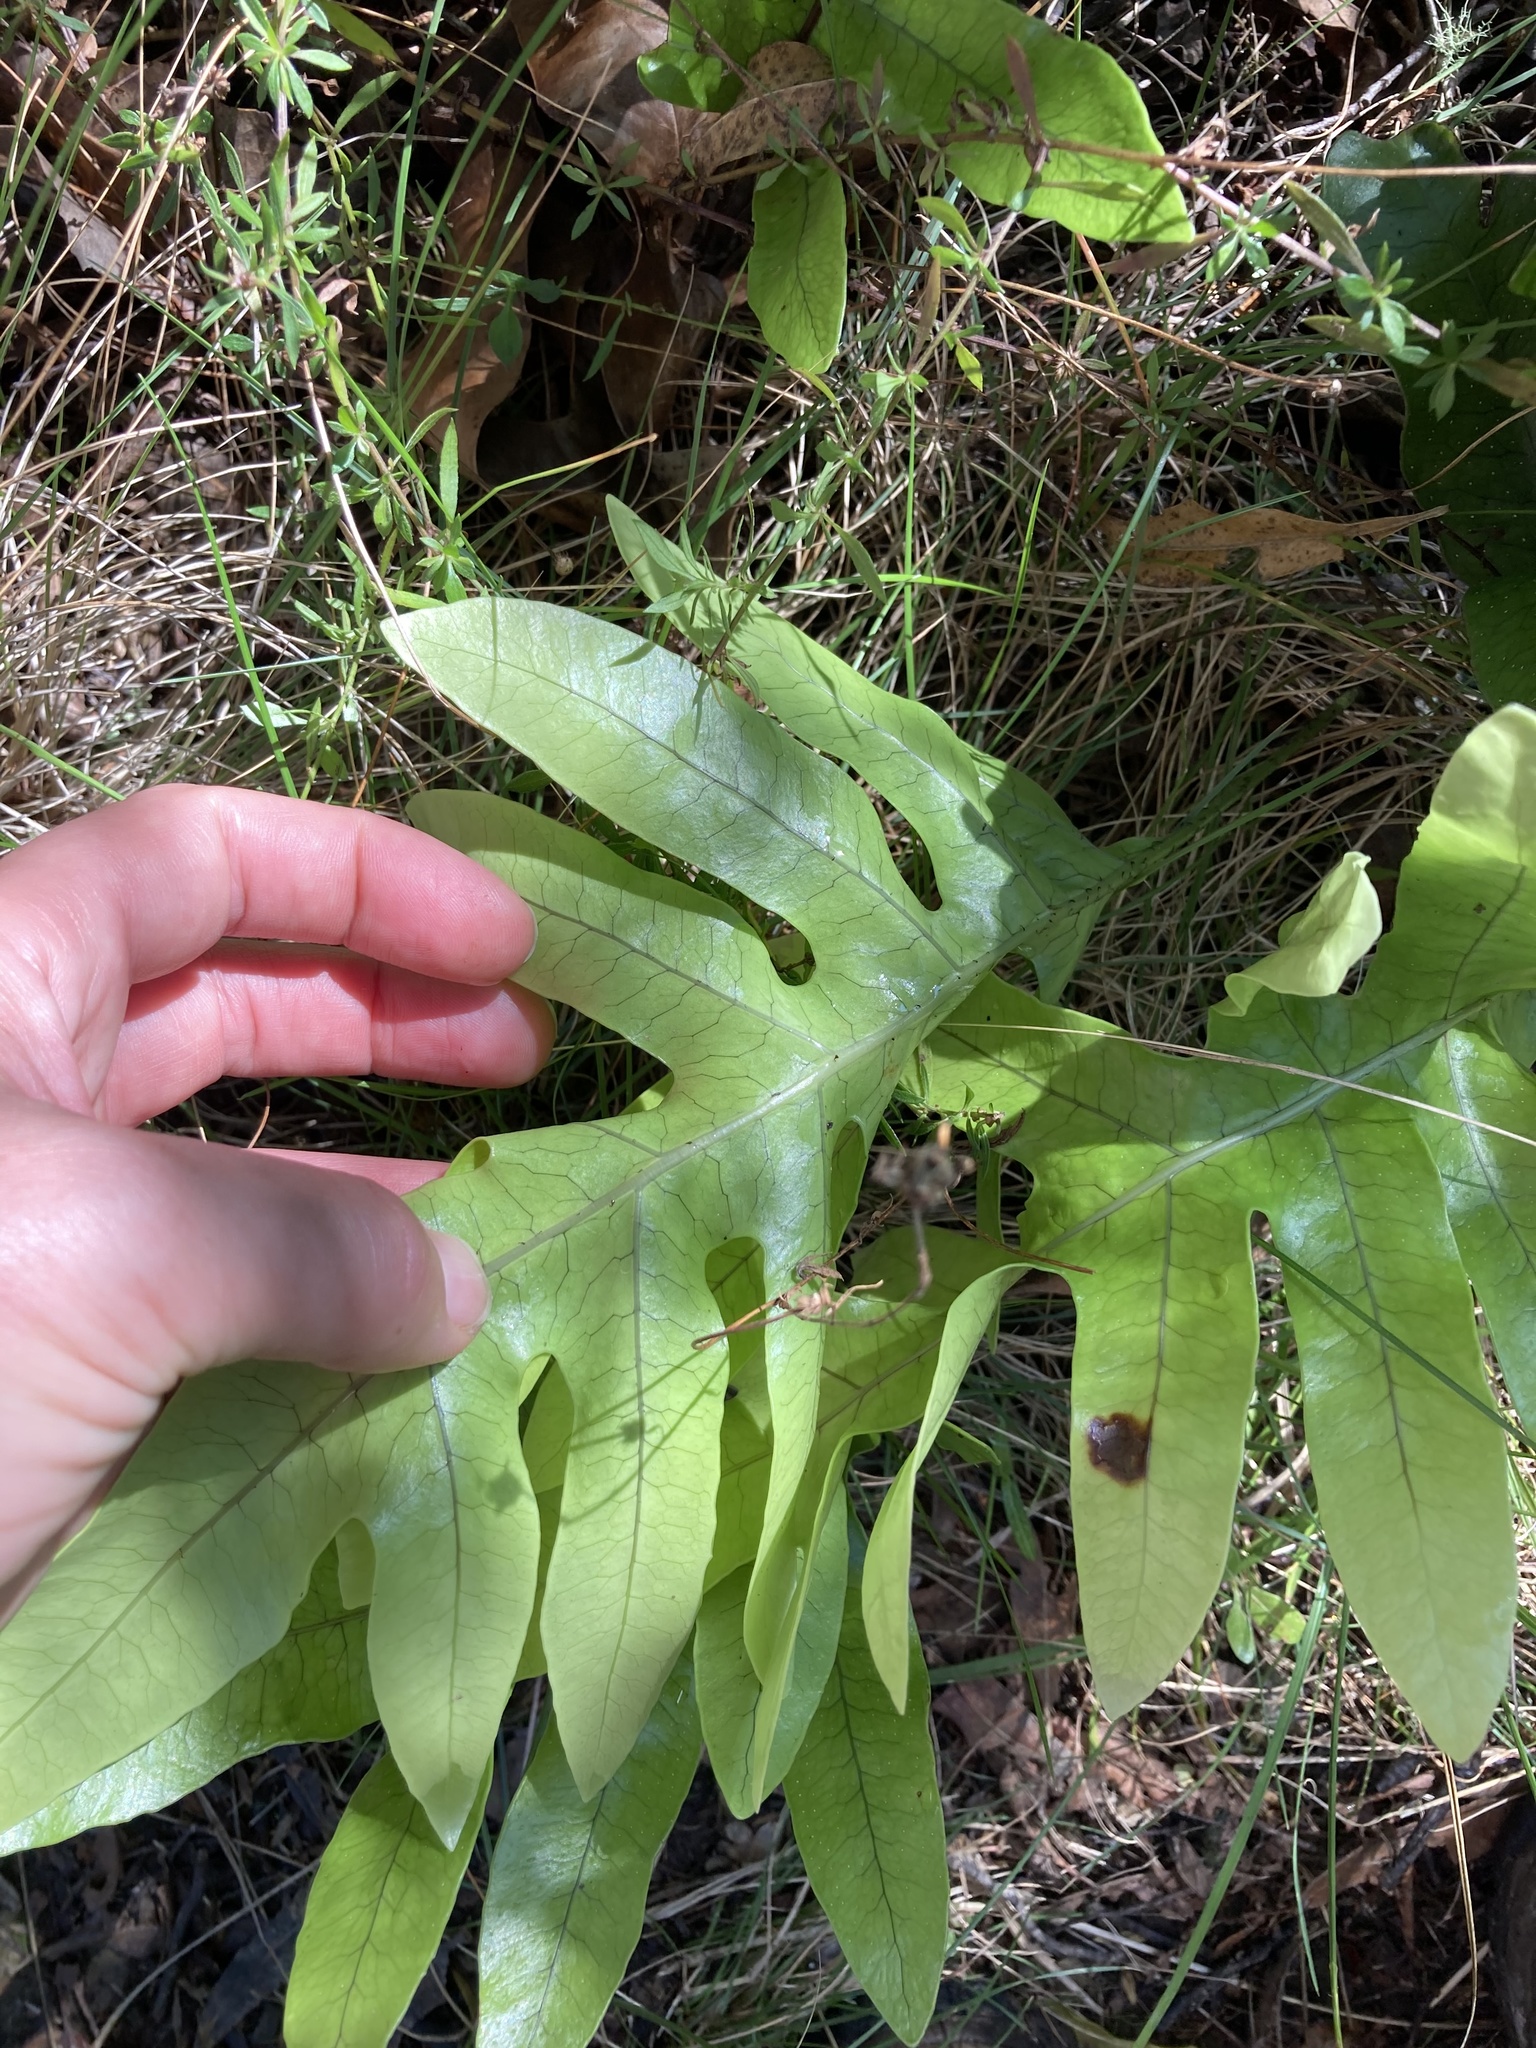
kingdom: Plantae
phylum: Tracheophyta
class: Polypodiopsida
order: Polypodiales
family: Polypodiaceae
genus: Lecanopteris
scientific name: Lecanopteris pustulata
